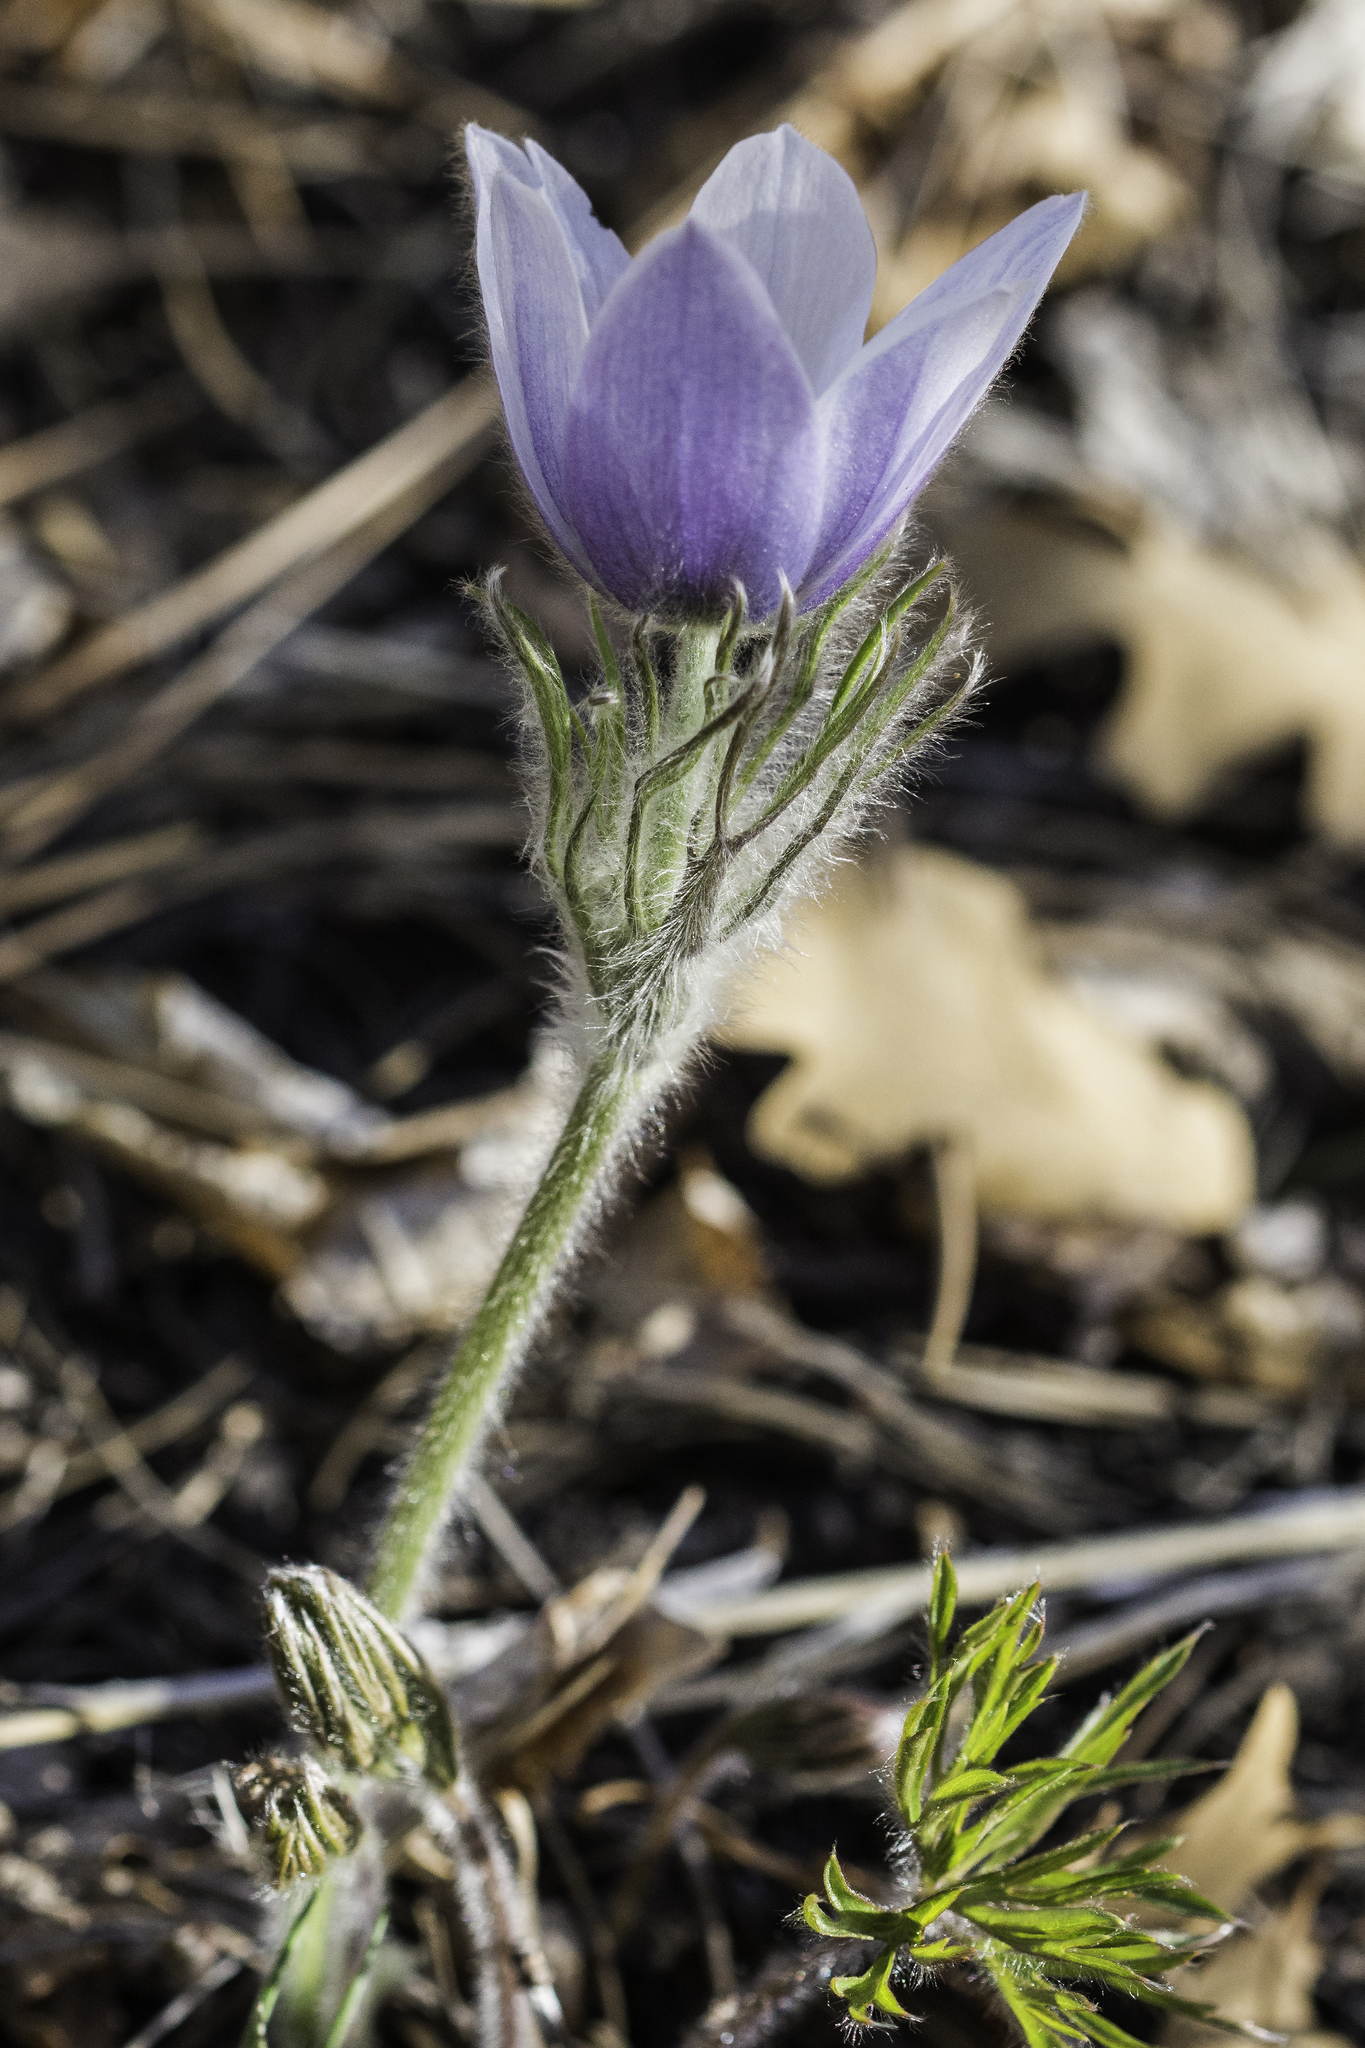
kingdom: Plantae
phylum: Tracheophyta
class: Magnoliopsida
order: Ranunculales
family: Ranunculaceae
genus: Pulsatilla
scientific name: Pulsatilla nuttalliana
